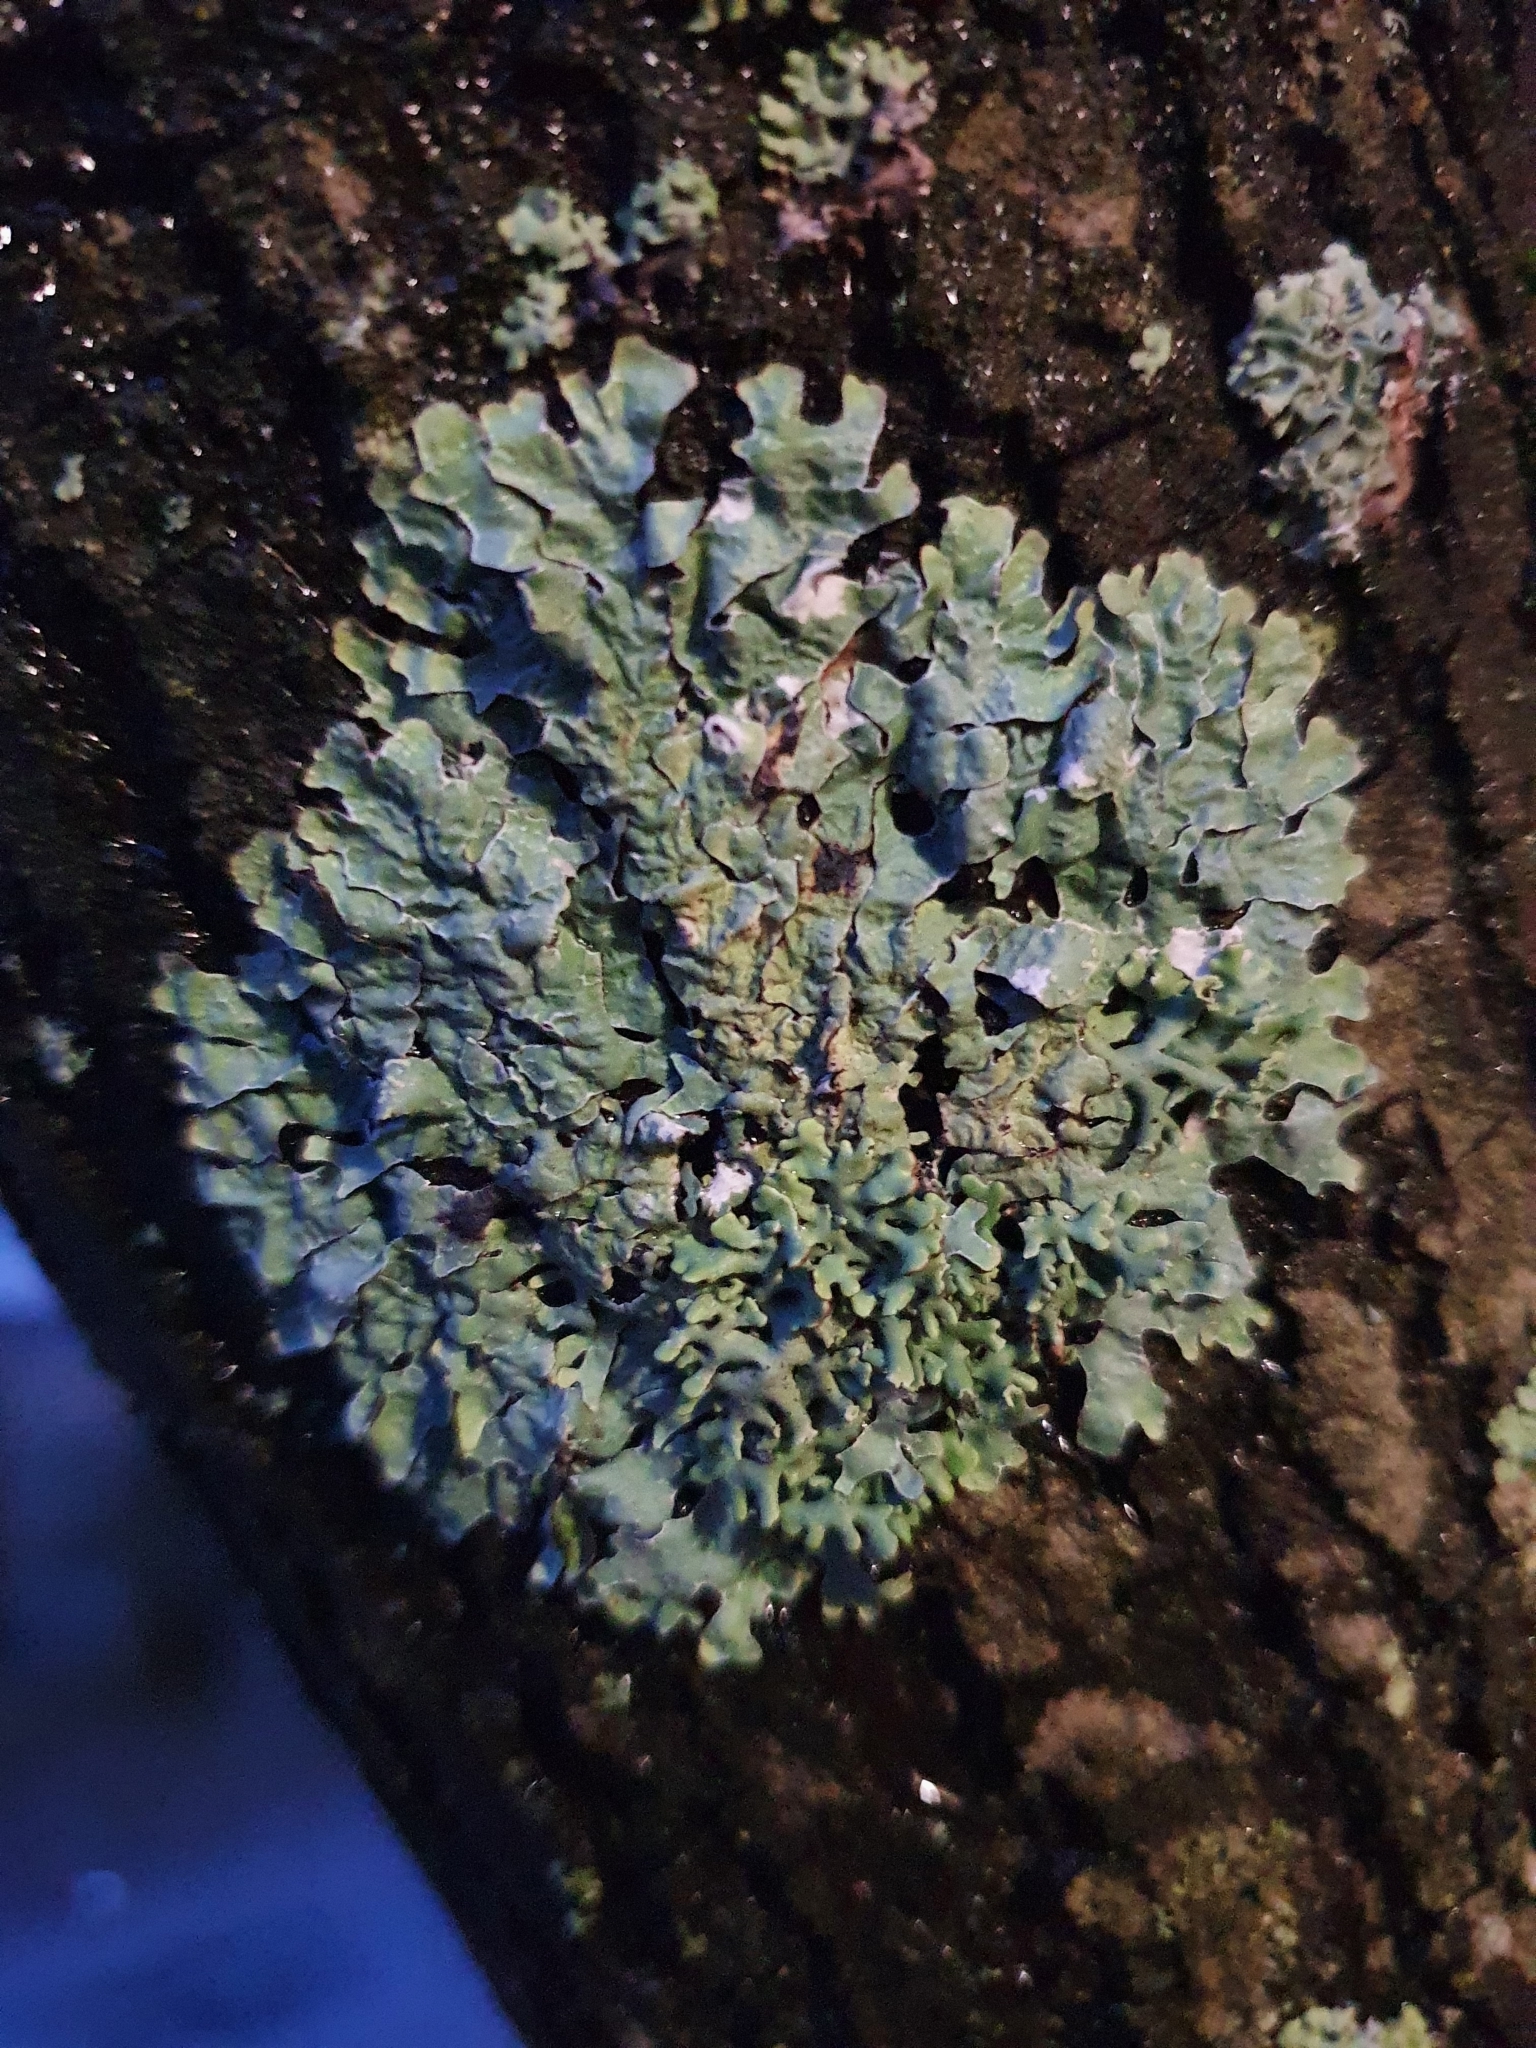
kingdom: Fungi
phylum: Ascomycota
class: Lecanoromycetes
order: Lecanorales
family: Parmeliaceae
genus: Parmelia
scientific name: Parmelia sulcata
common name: Netted shield lichen
